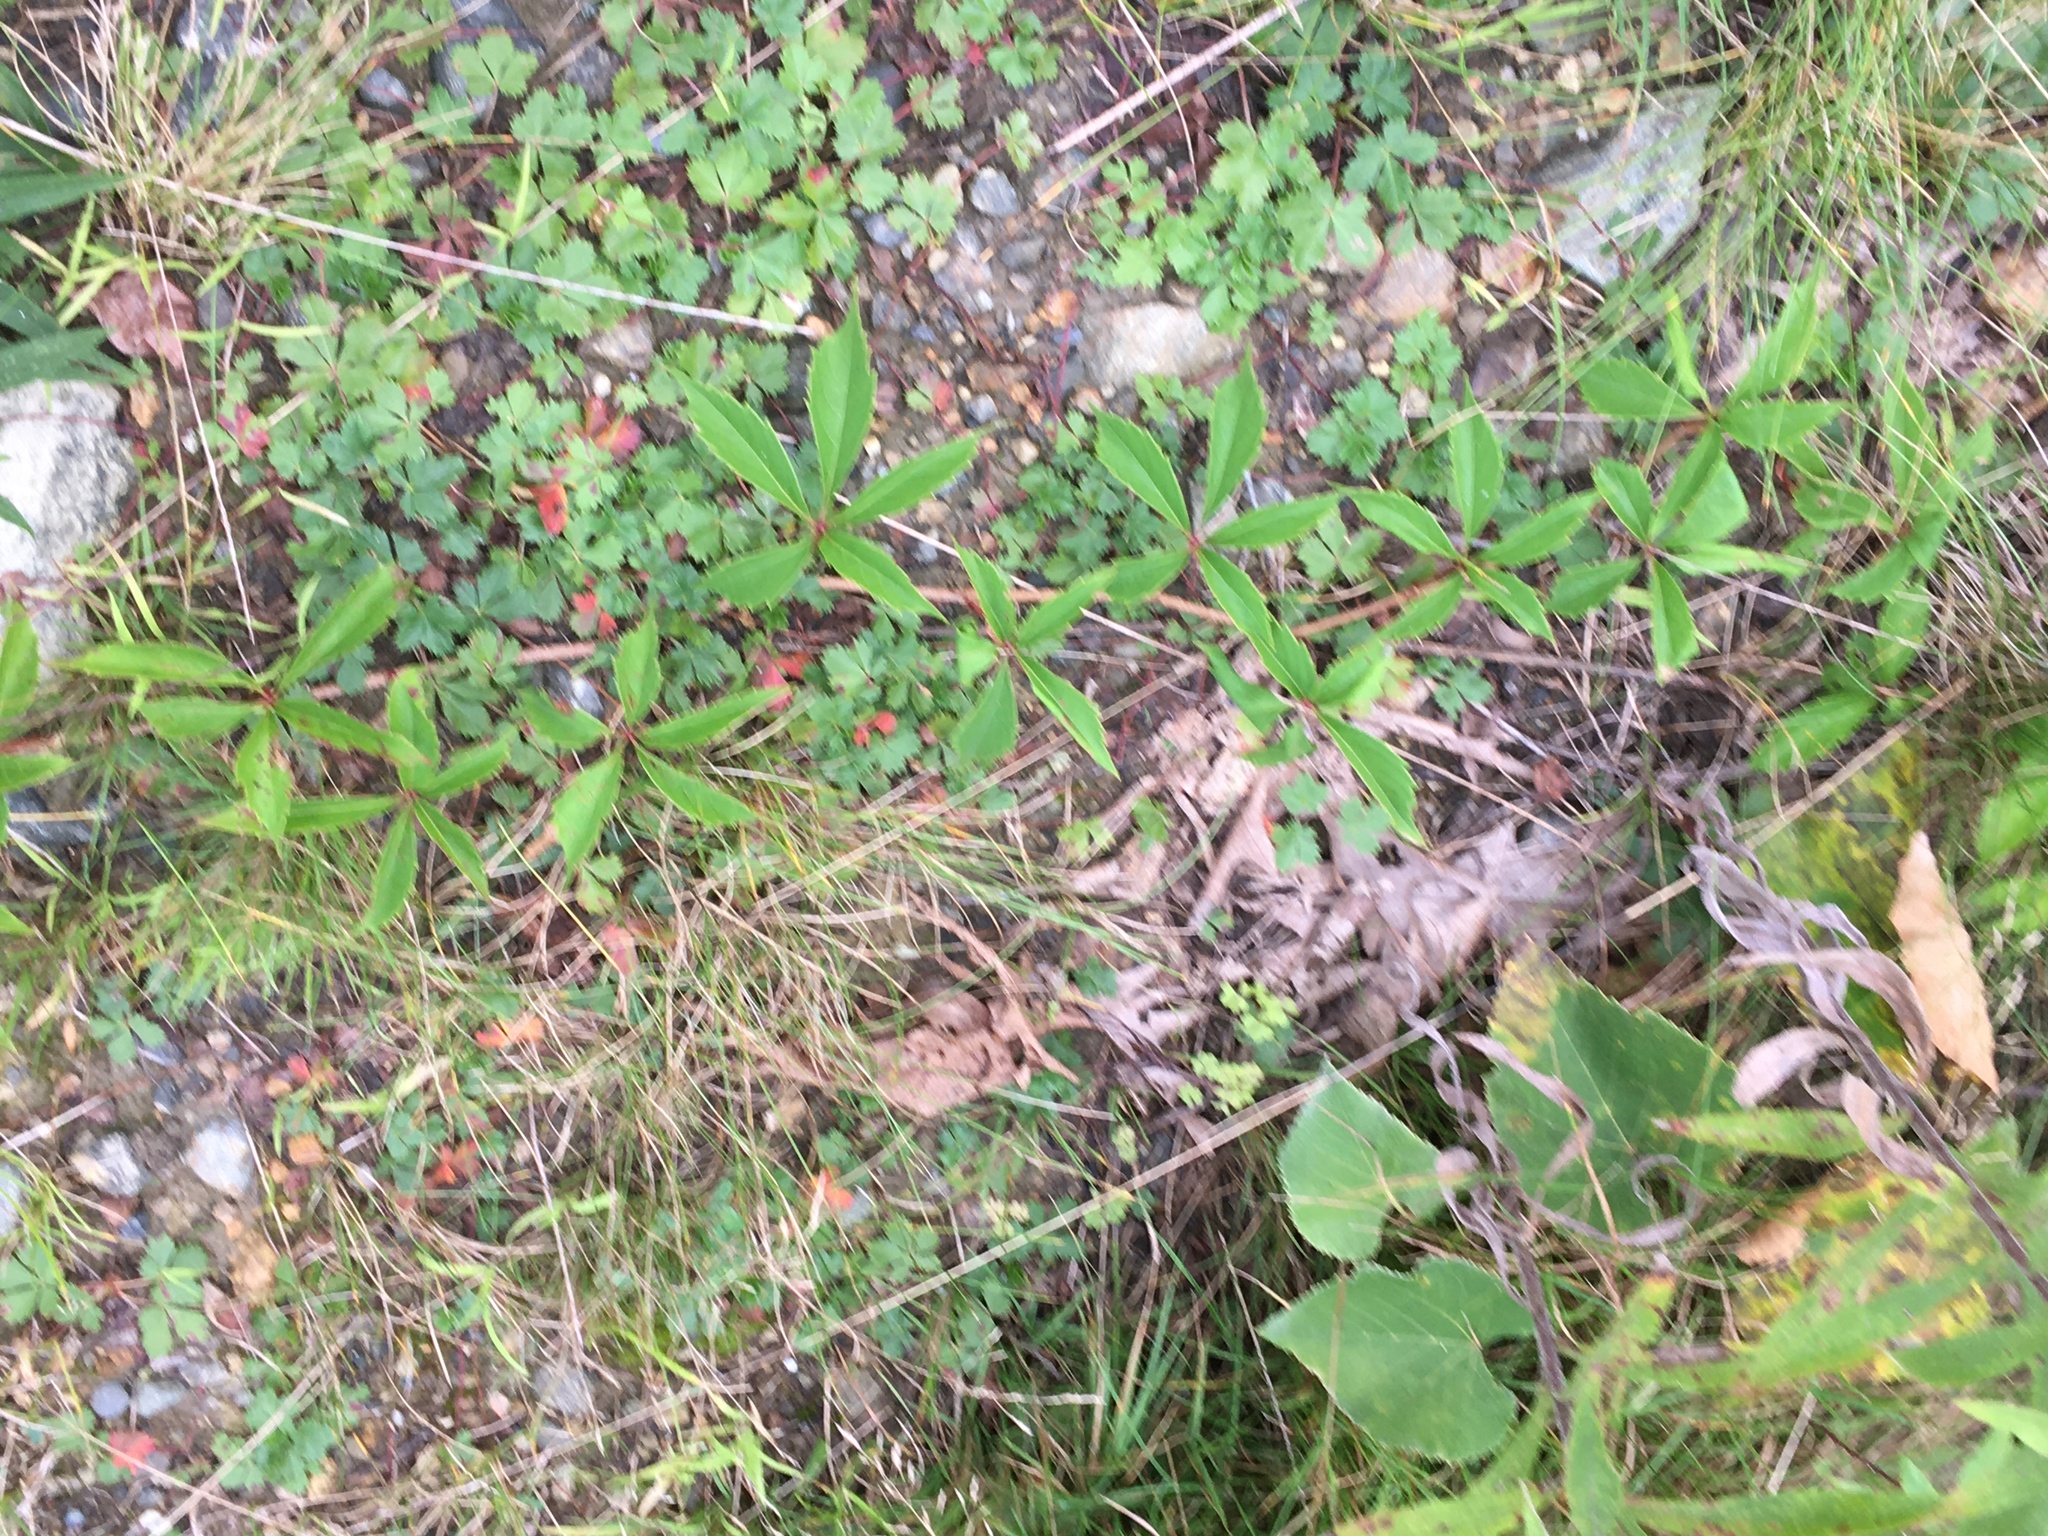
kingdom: Plantae
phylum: Tracheophyta
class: Magnoliopsida
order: Vitales
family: Vitaceae
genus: Parthenocissus
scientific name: Parthenocissus quinquefolia
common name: Virginia-creeper
